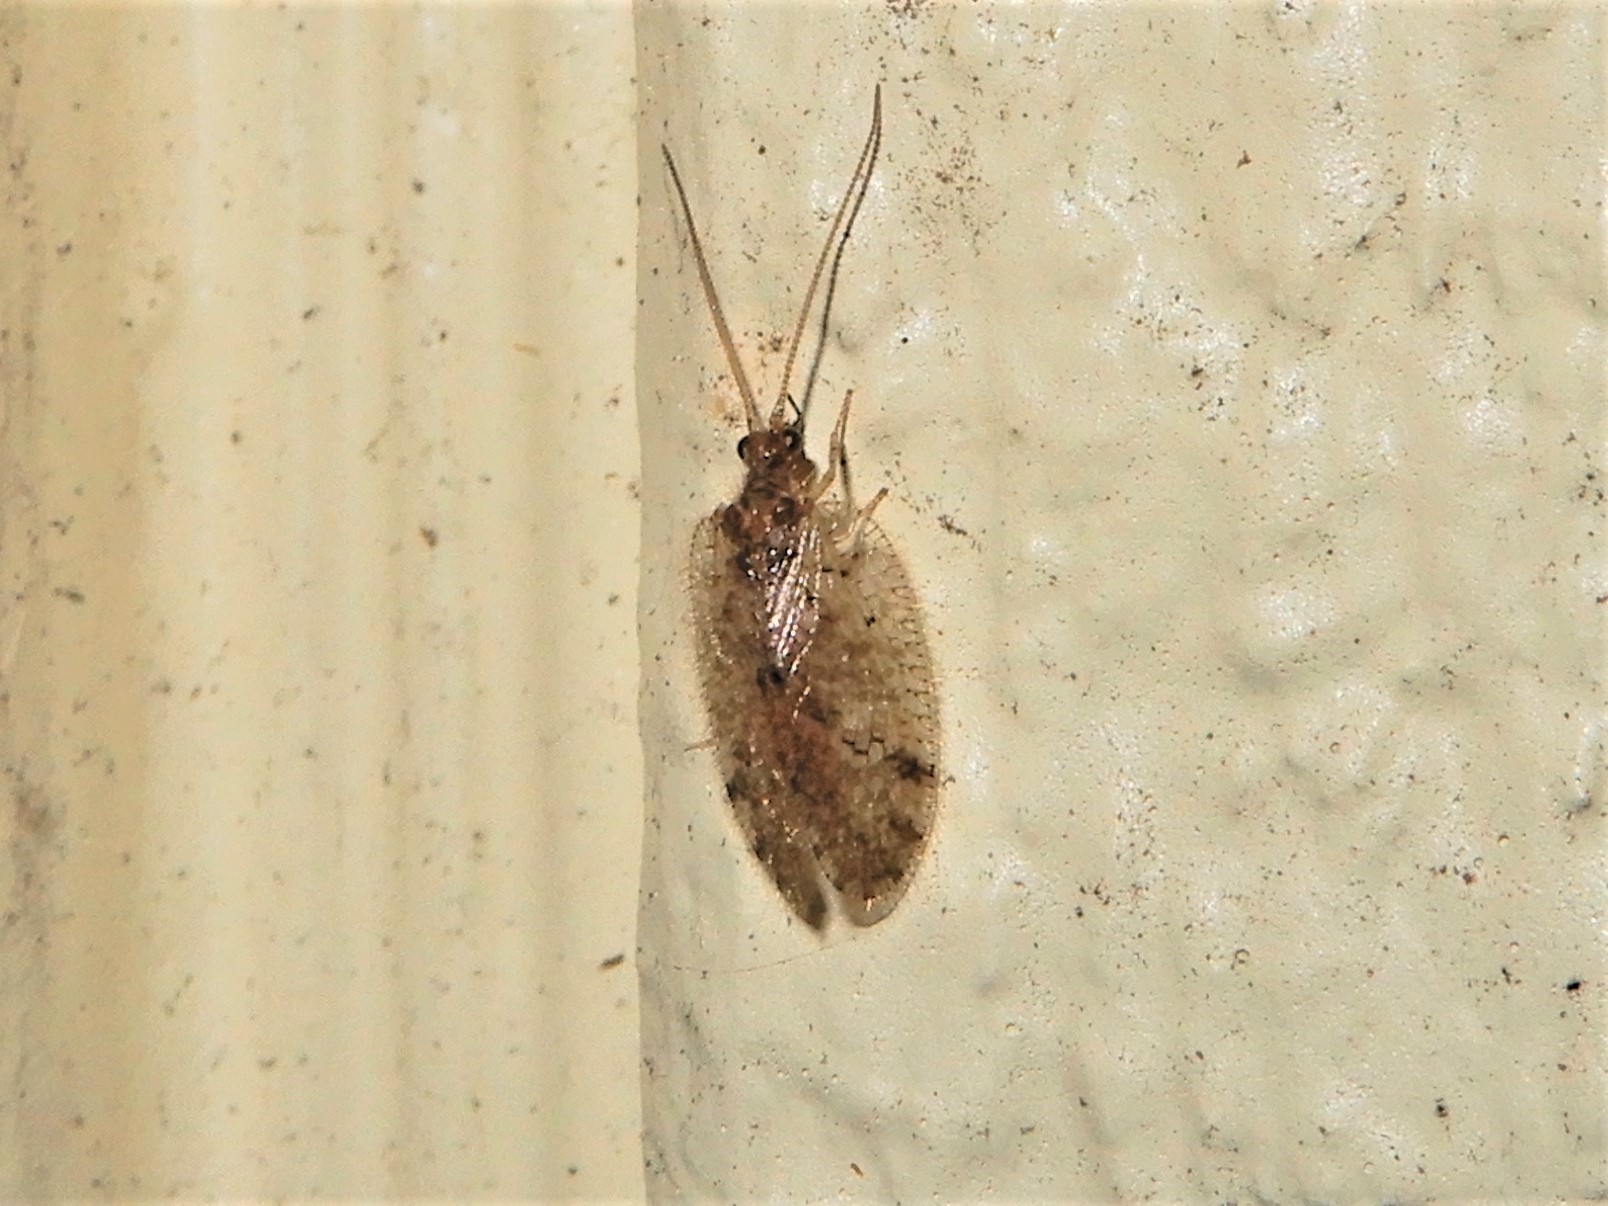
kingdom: Animalia
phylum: Arthropoda
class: Insecta
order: Neuroptera
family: Hemerobiidae
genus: Psectra
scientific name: Psectra nakaharai
